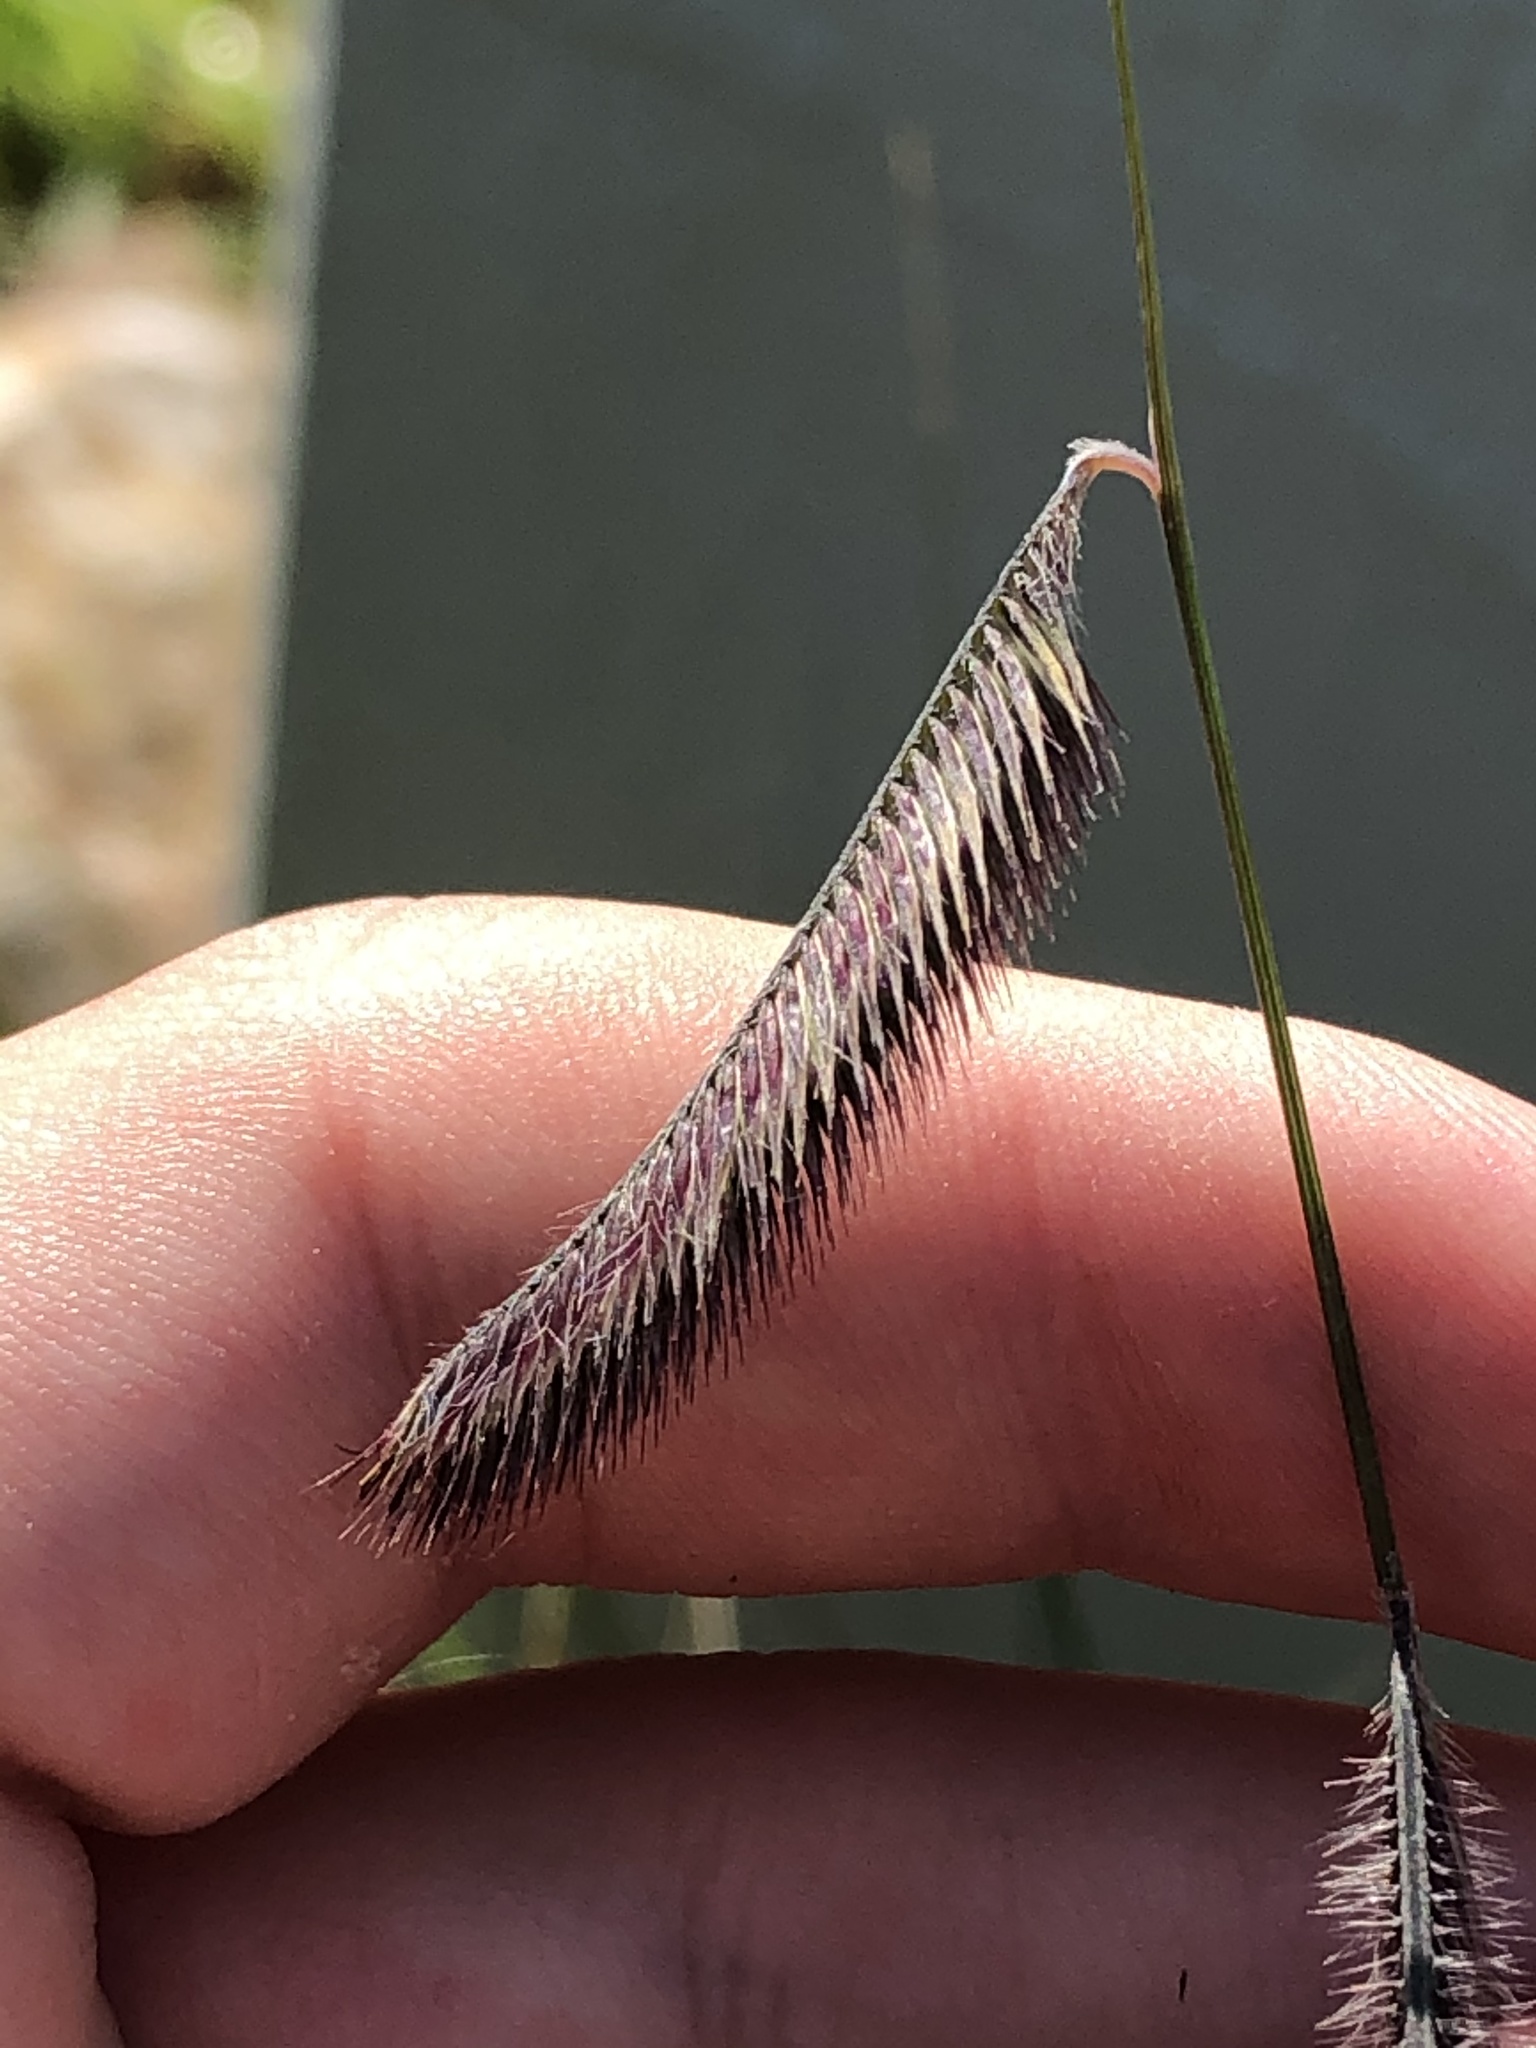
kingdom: Plantae
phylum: Tracheophyta
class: Liliopsida
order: Poales
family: Poaceae
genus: Bouteloua
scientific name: Bouteloua gracilis
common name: Blue grama
